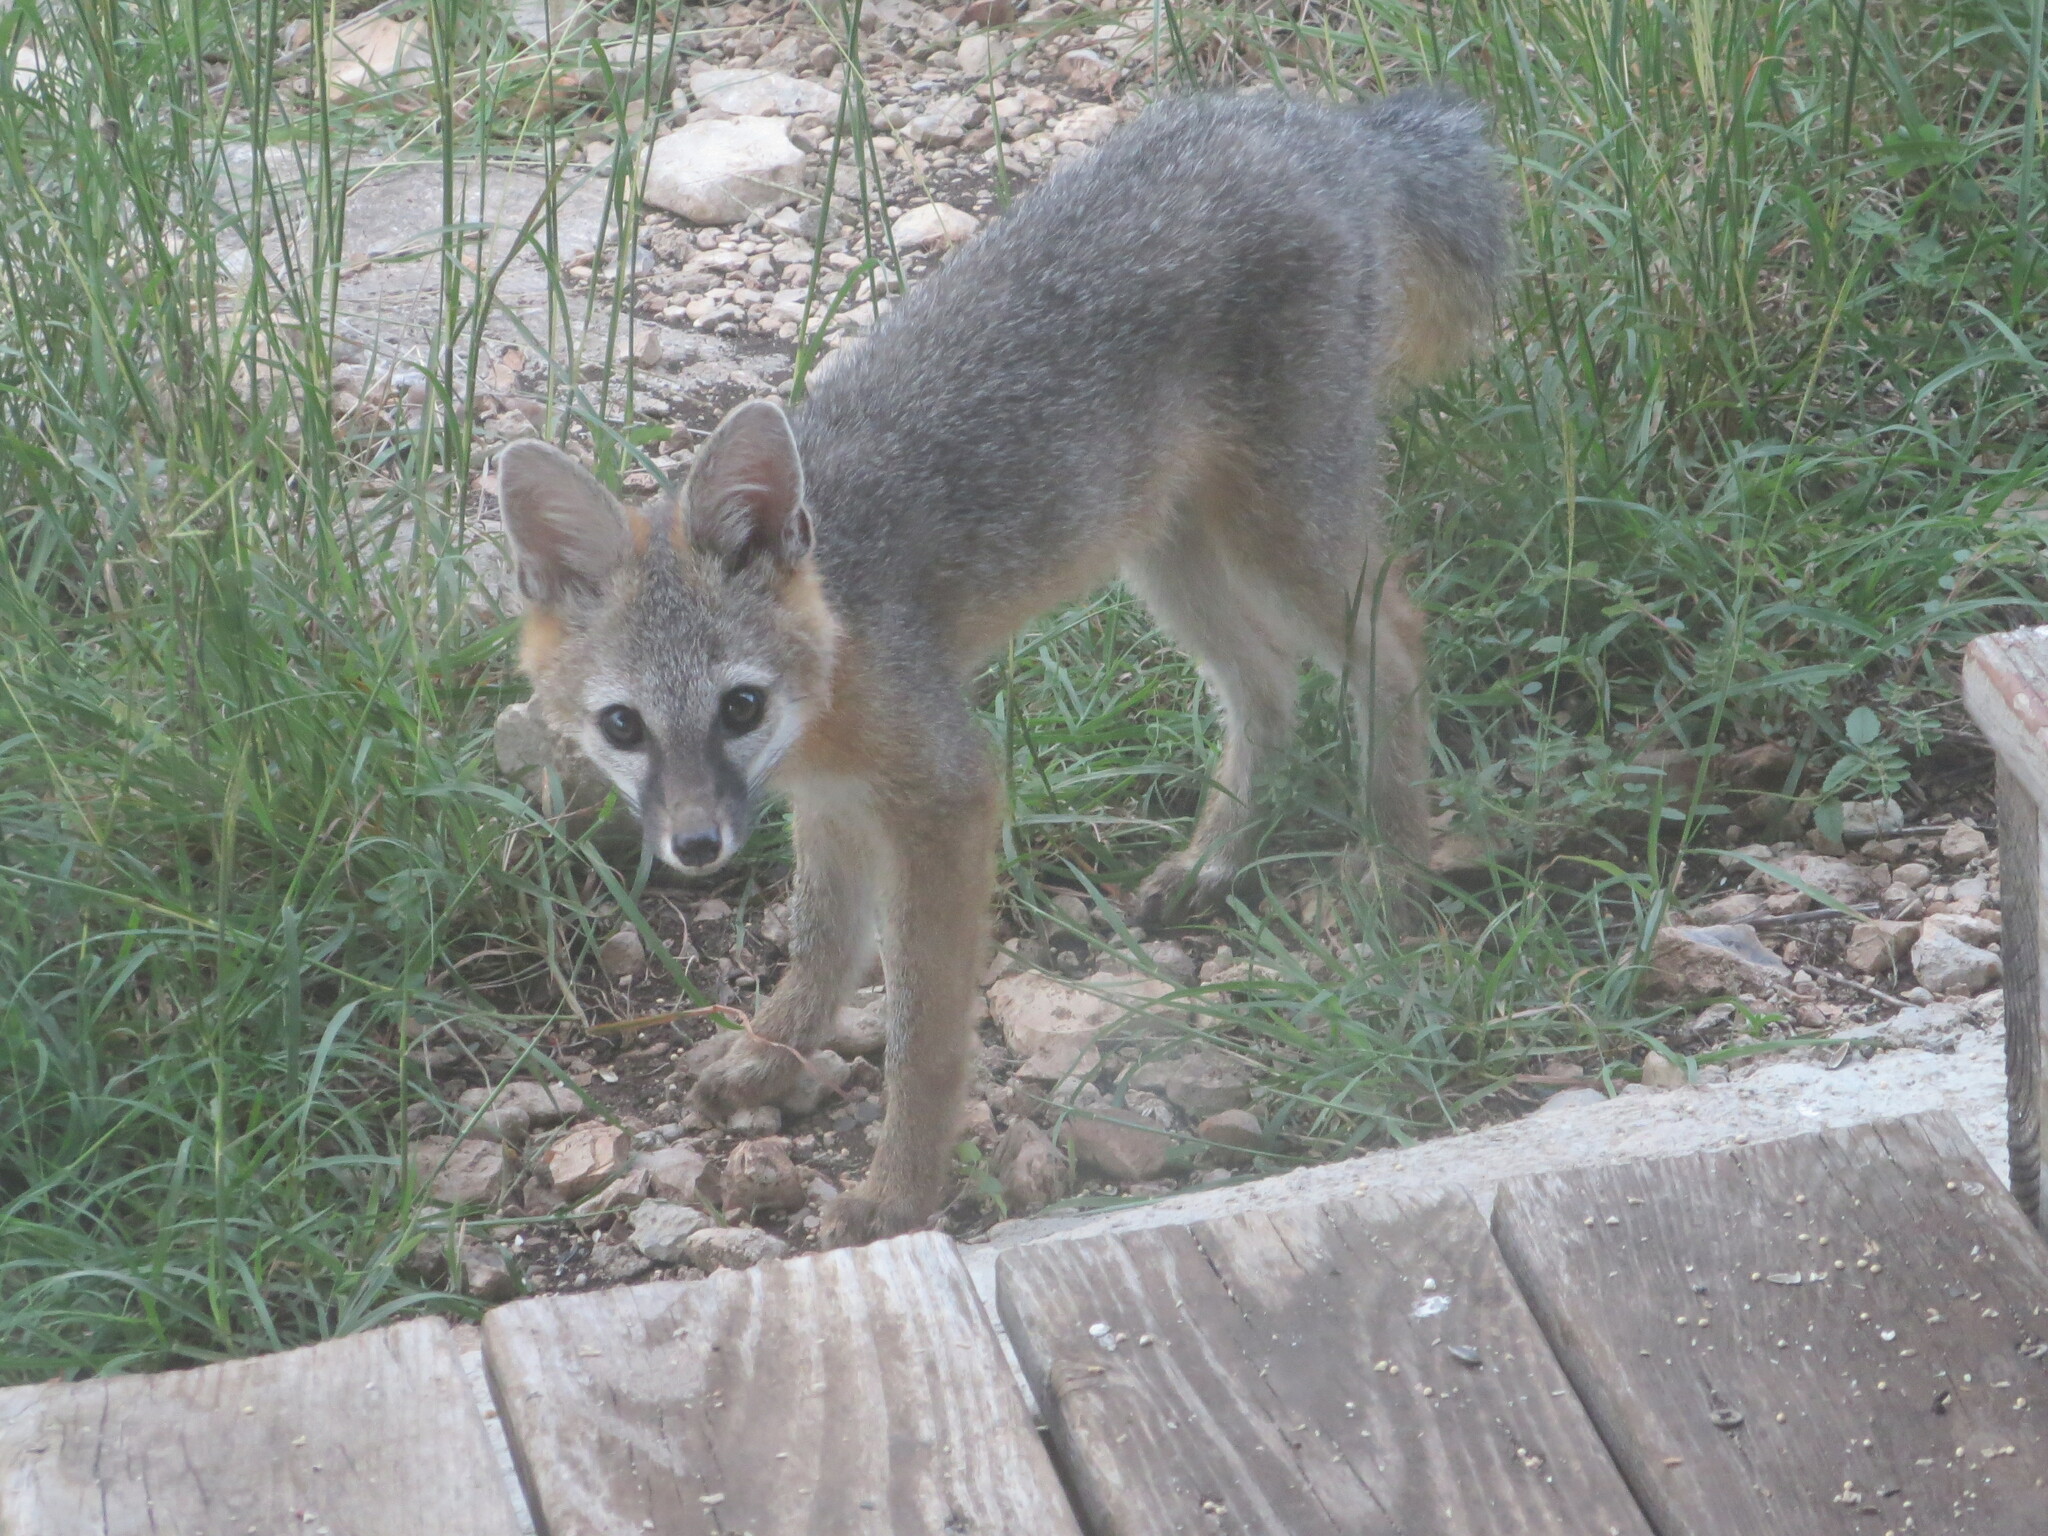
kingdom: Animalia
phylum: Chordata
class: Mammalia
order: Carnivora
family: Canidae
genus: Urocyon
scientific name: Urocyon cinereoargenteus
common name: Gray fox
